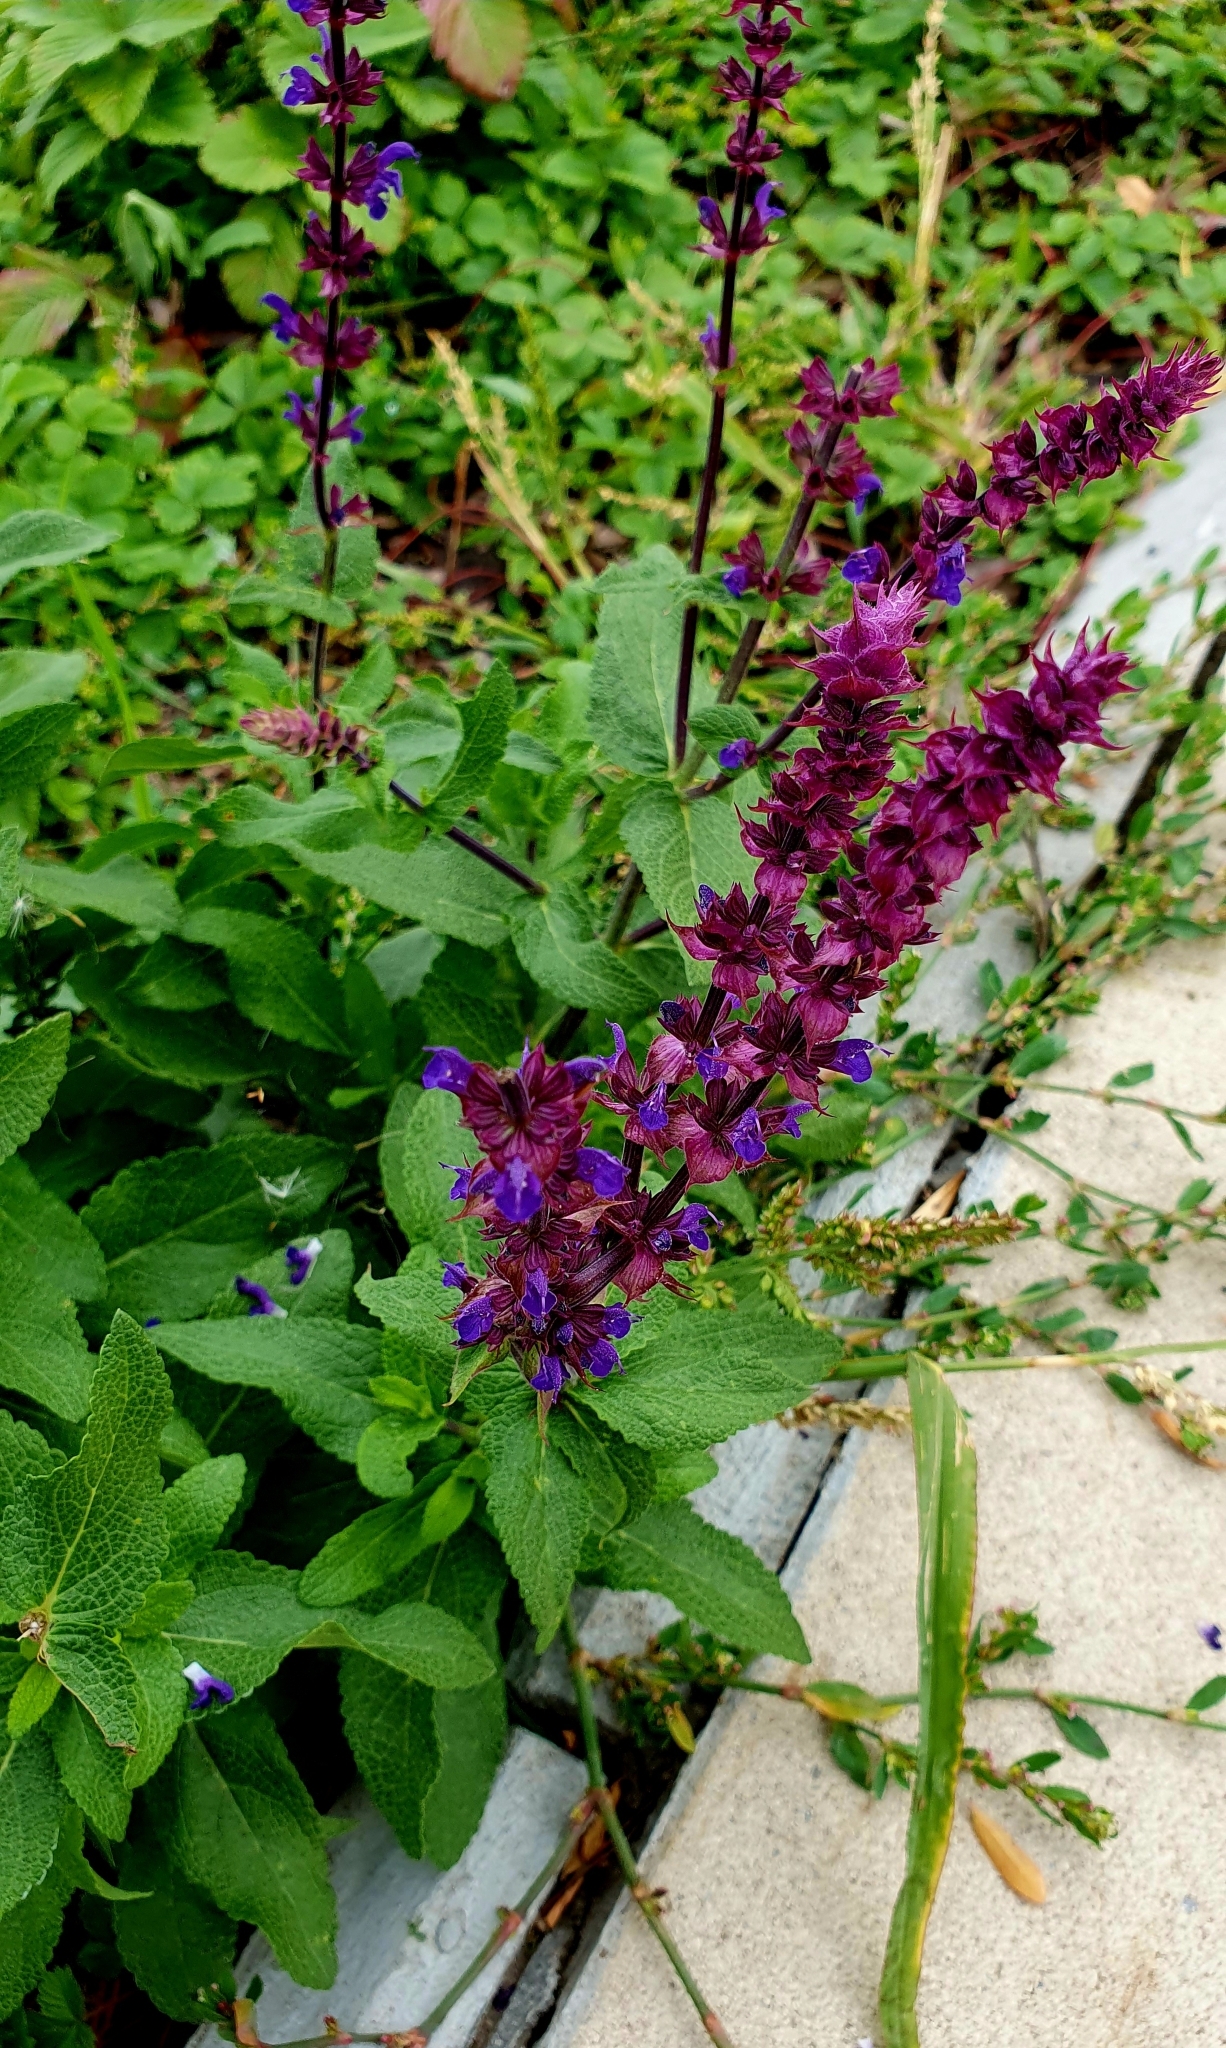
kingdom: Plantae
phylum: Tracheophyta
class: Magnoliopsida
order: Lamiales
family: Lamiaceae
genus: Salvia
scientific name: Salvia nemorosa
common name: Balkan clary
